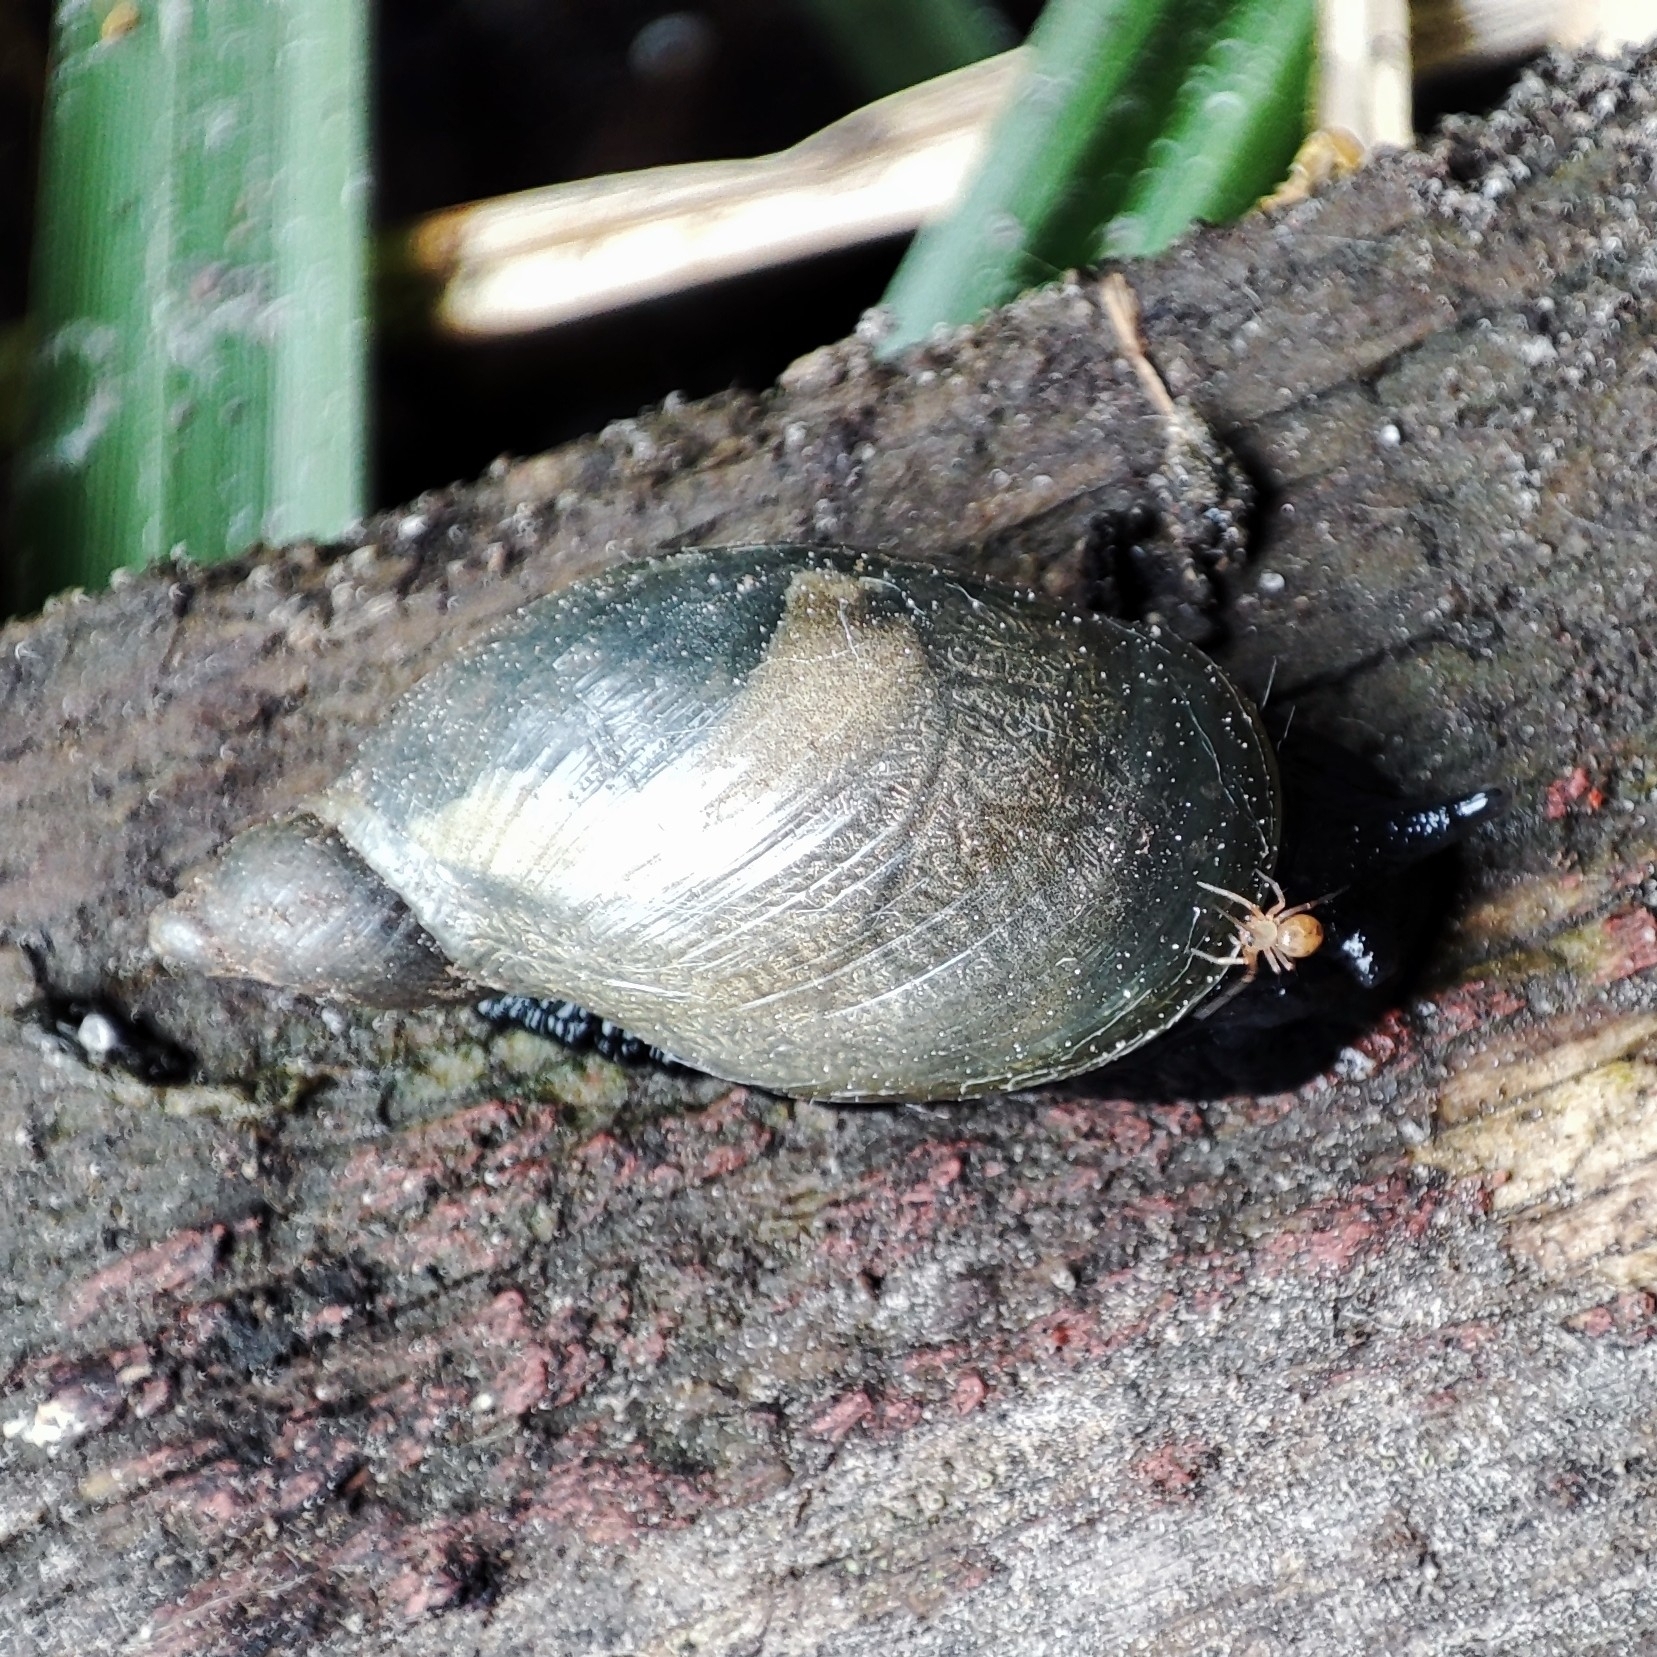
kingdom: Animalia
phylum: Mollusca
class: Gastropoda
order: Stylommatophora
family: Succineidae
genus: Succinea
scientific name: Succinea putris
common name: European ambersnail
